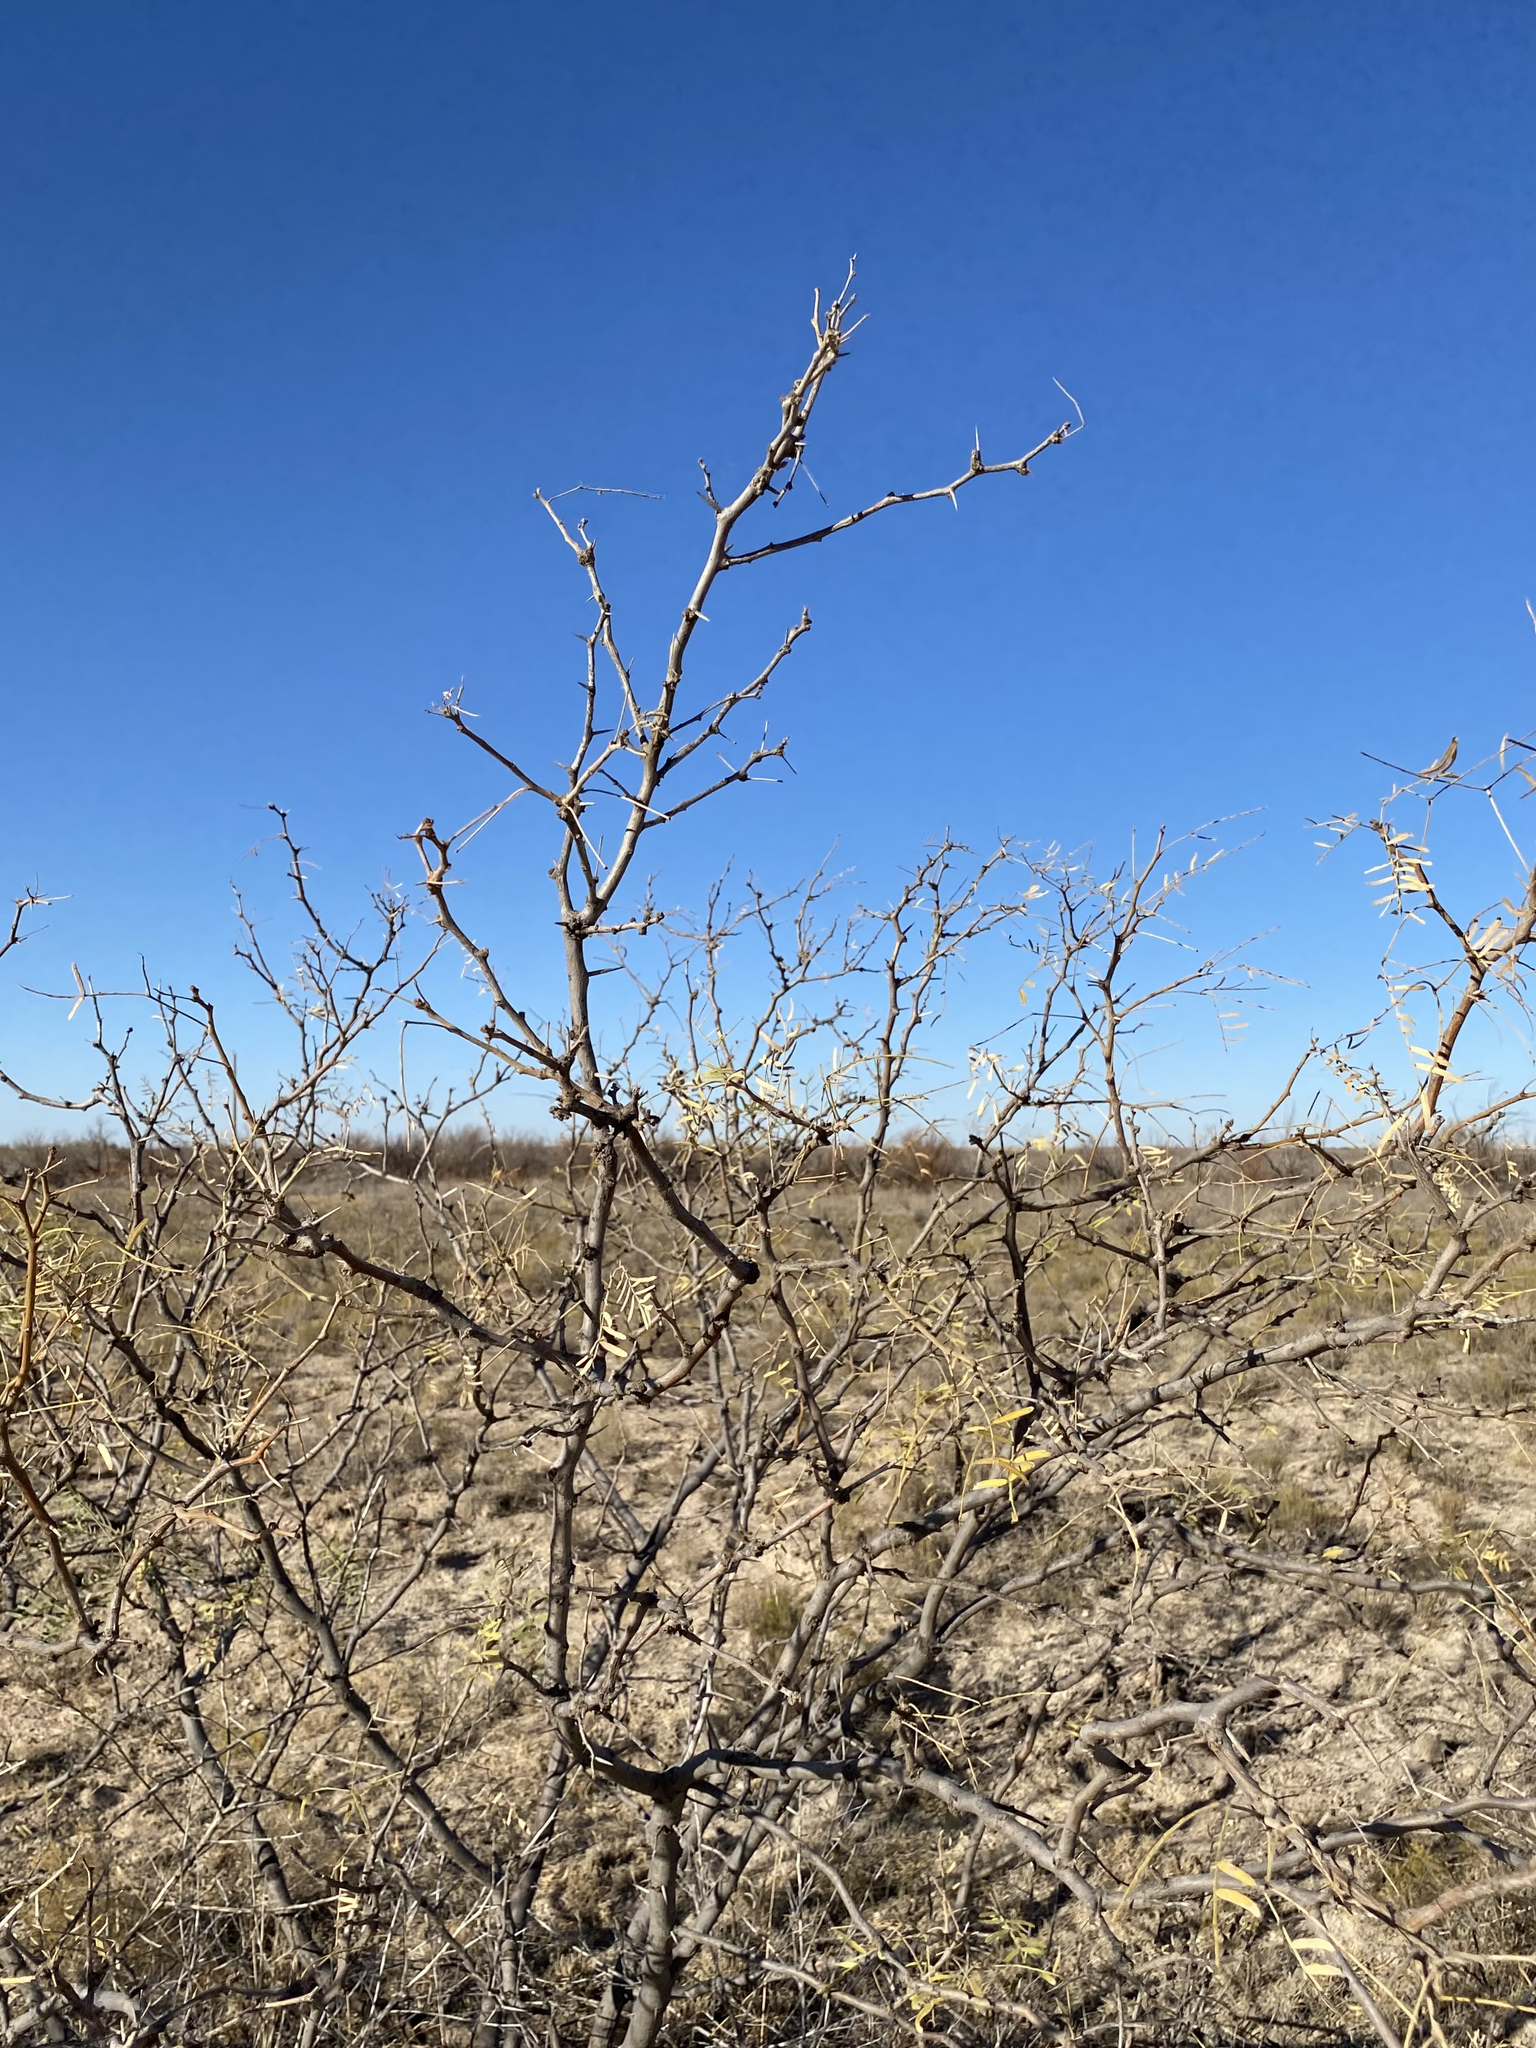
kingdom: Plantae
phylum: Tracheophyta
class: Magnoliopsida
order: Fabales
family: Fabaceae
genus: Prosopis
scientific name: Prosopis glandulosa
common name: Honey mesquite
